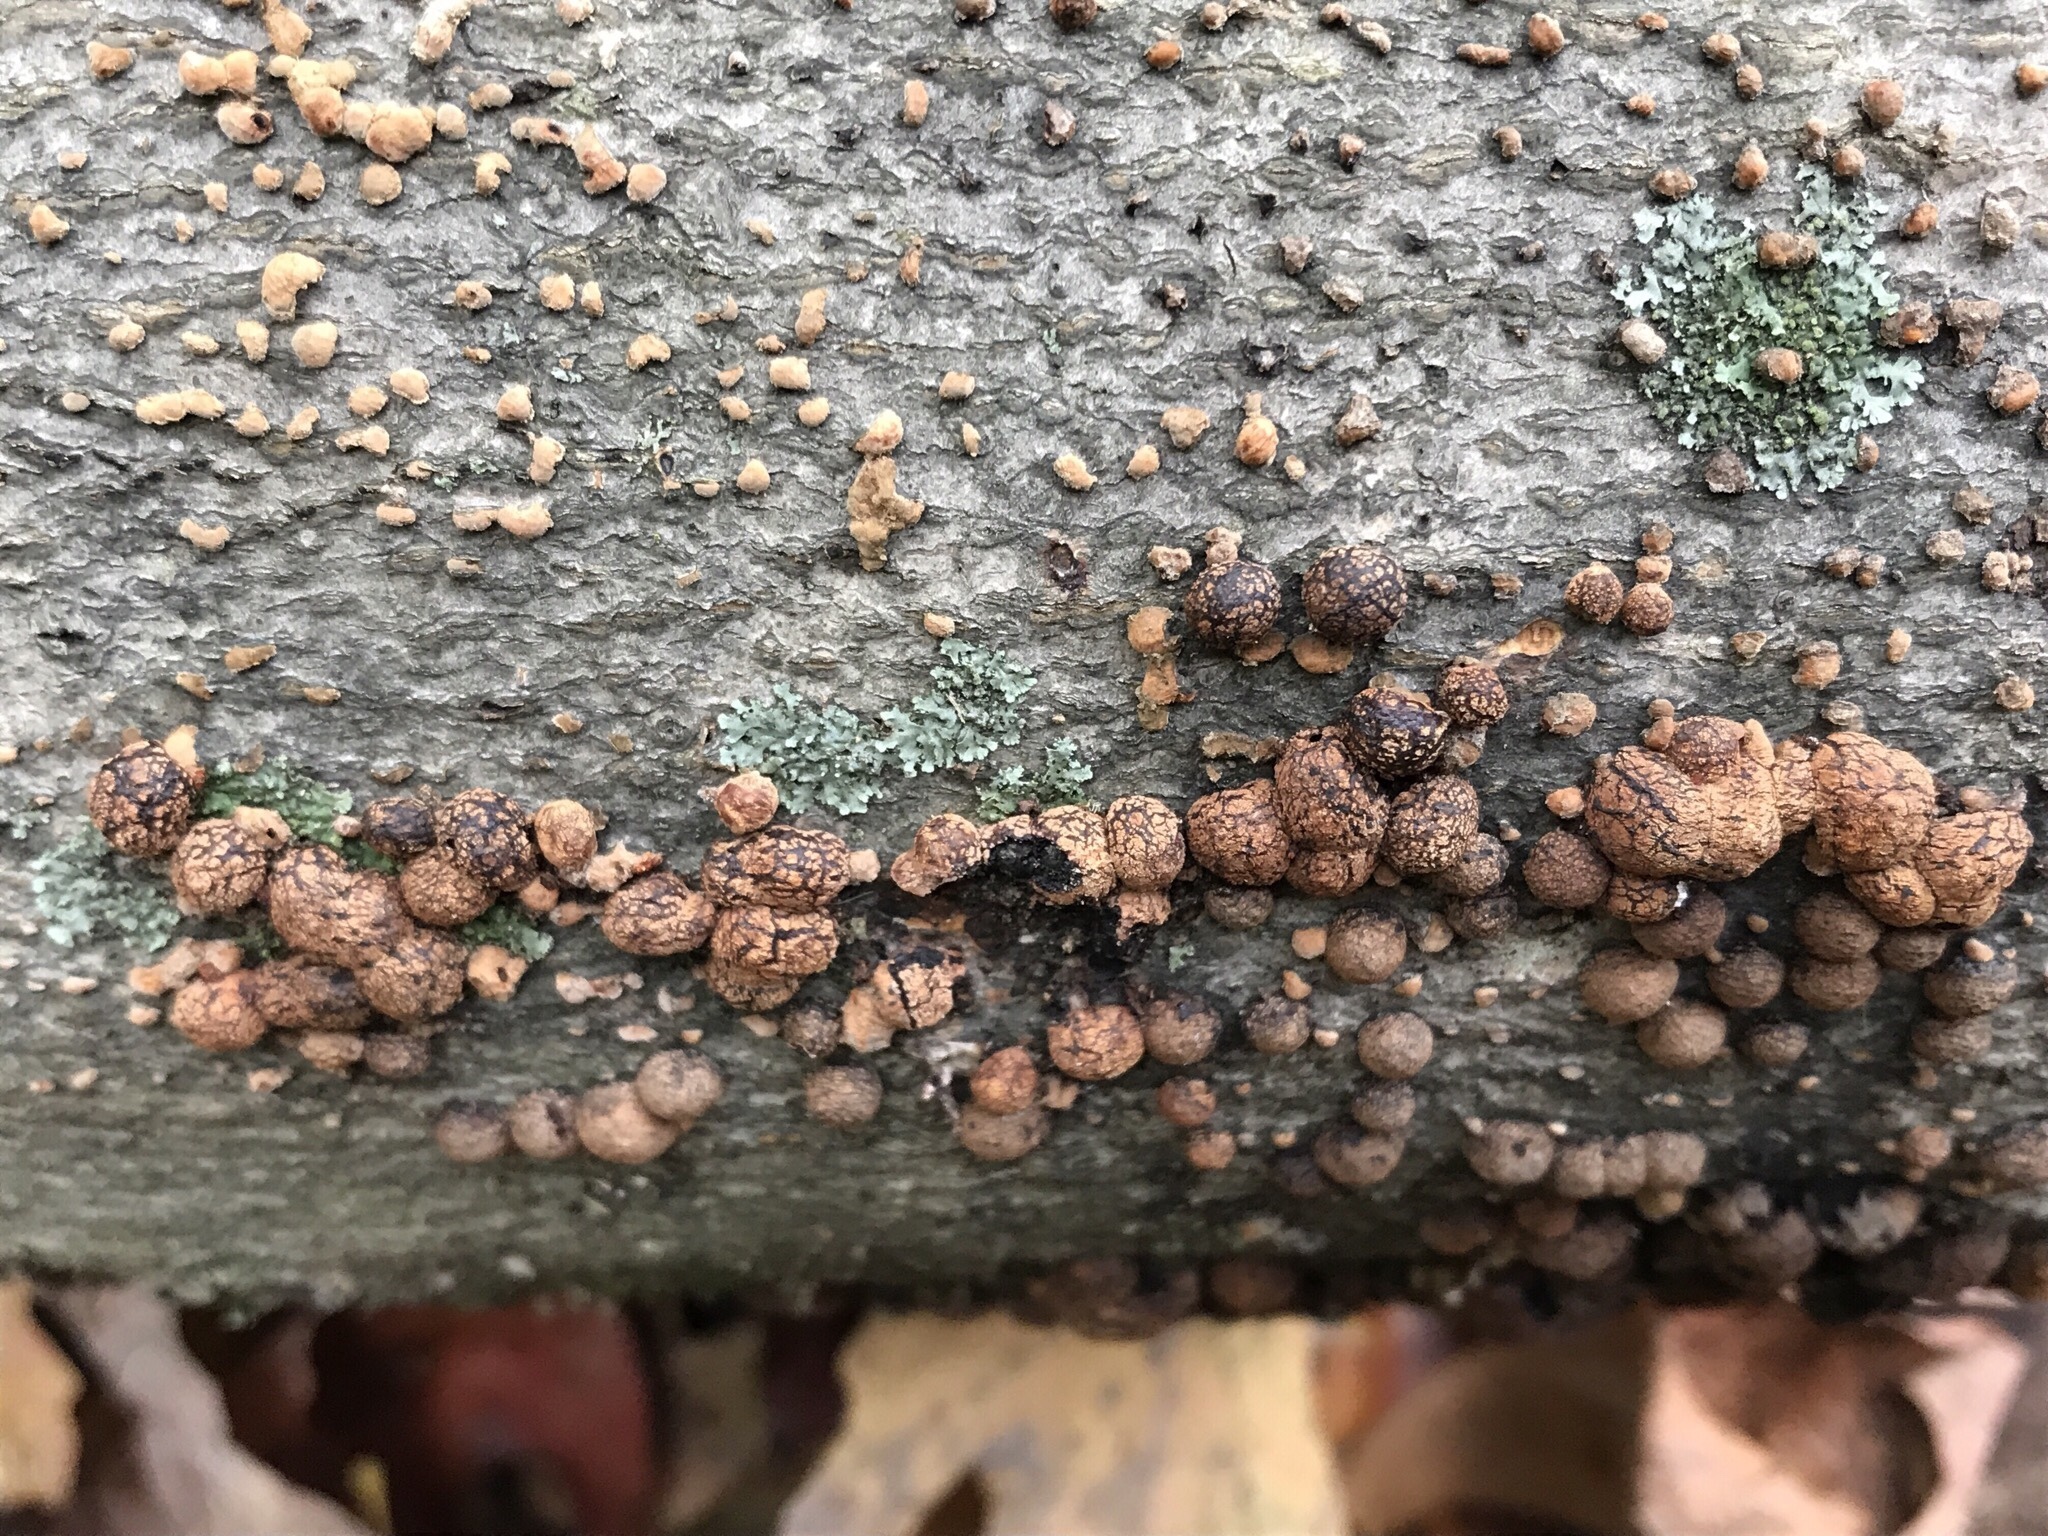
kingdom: Fungi
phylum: Ascomycota
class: Sordariomycetes
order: Hypocreales
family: Nectriaceae
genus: Cosmospora
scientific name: Cosmospora viridescens
